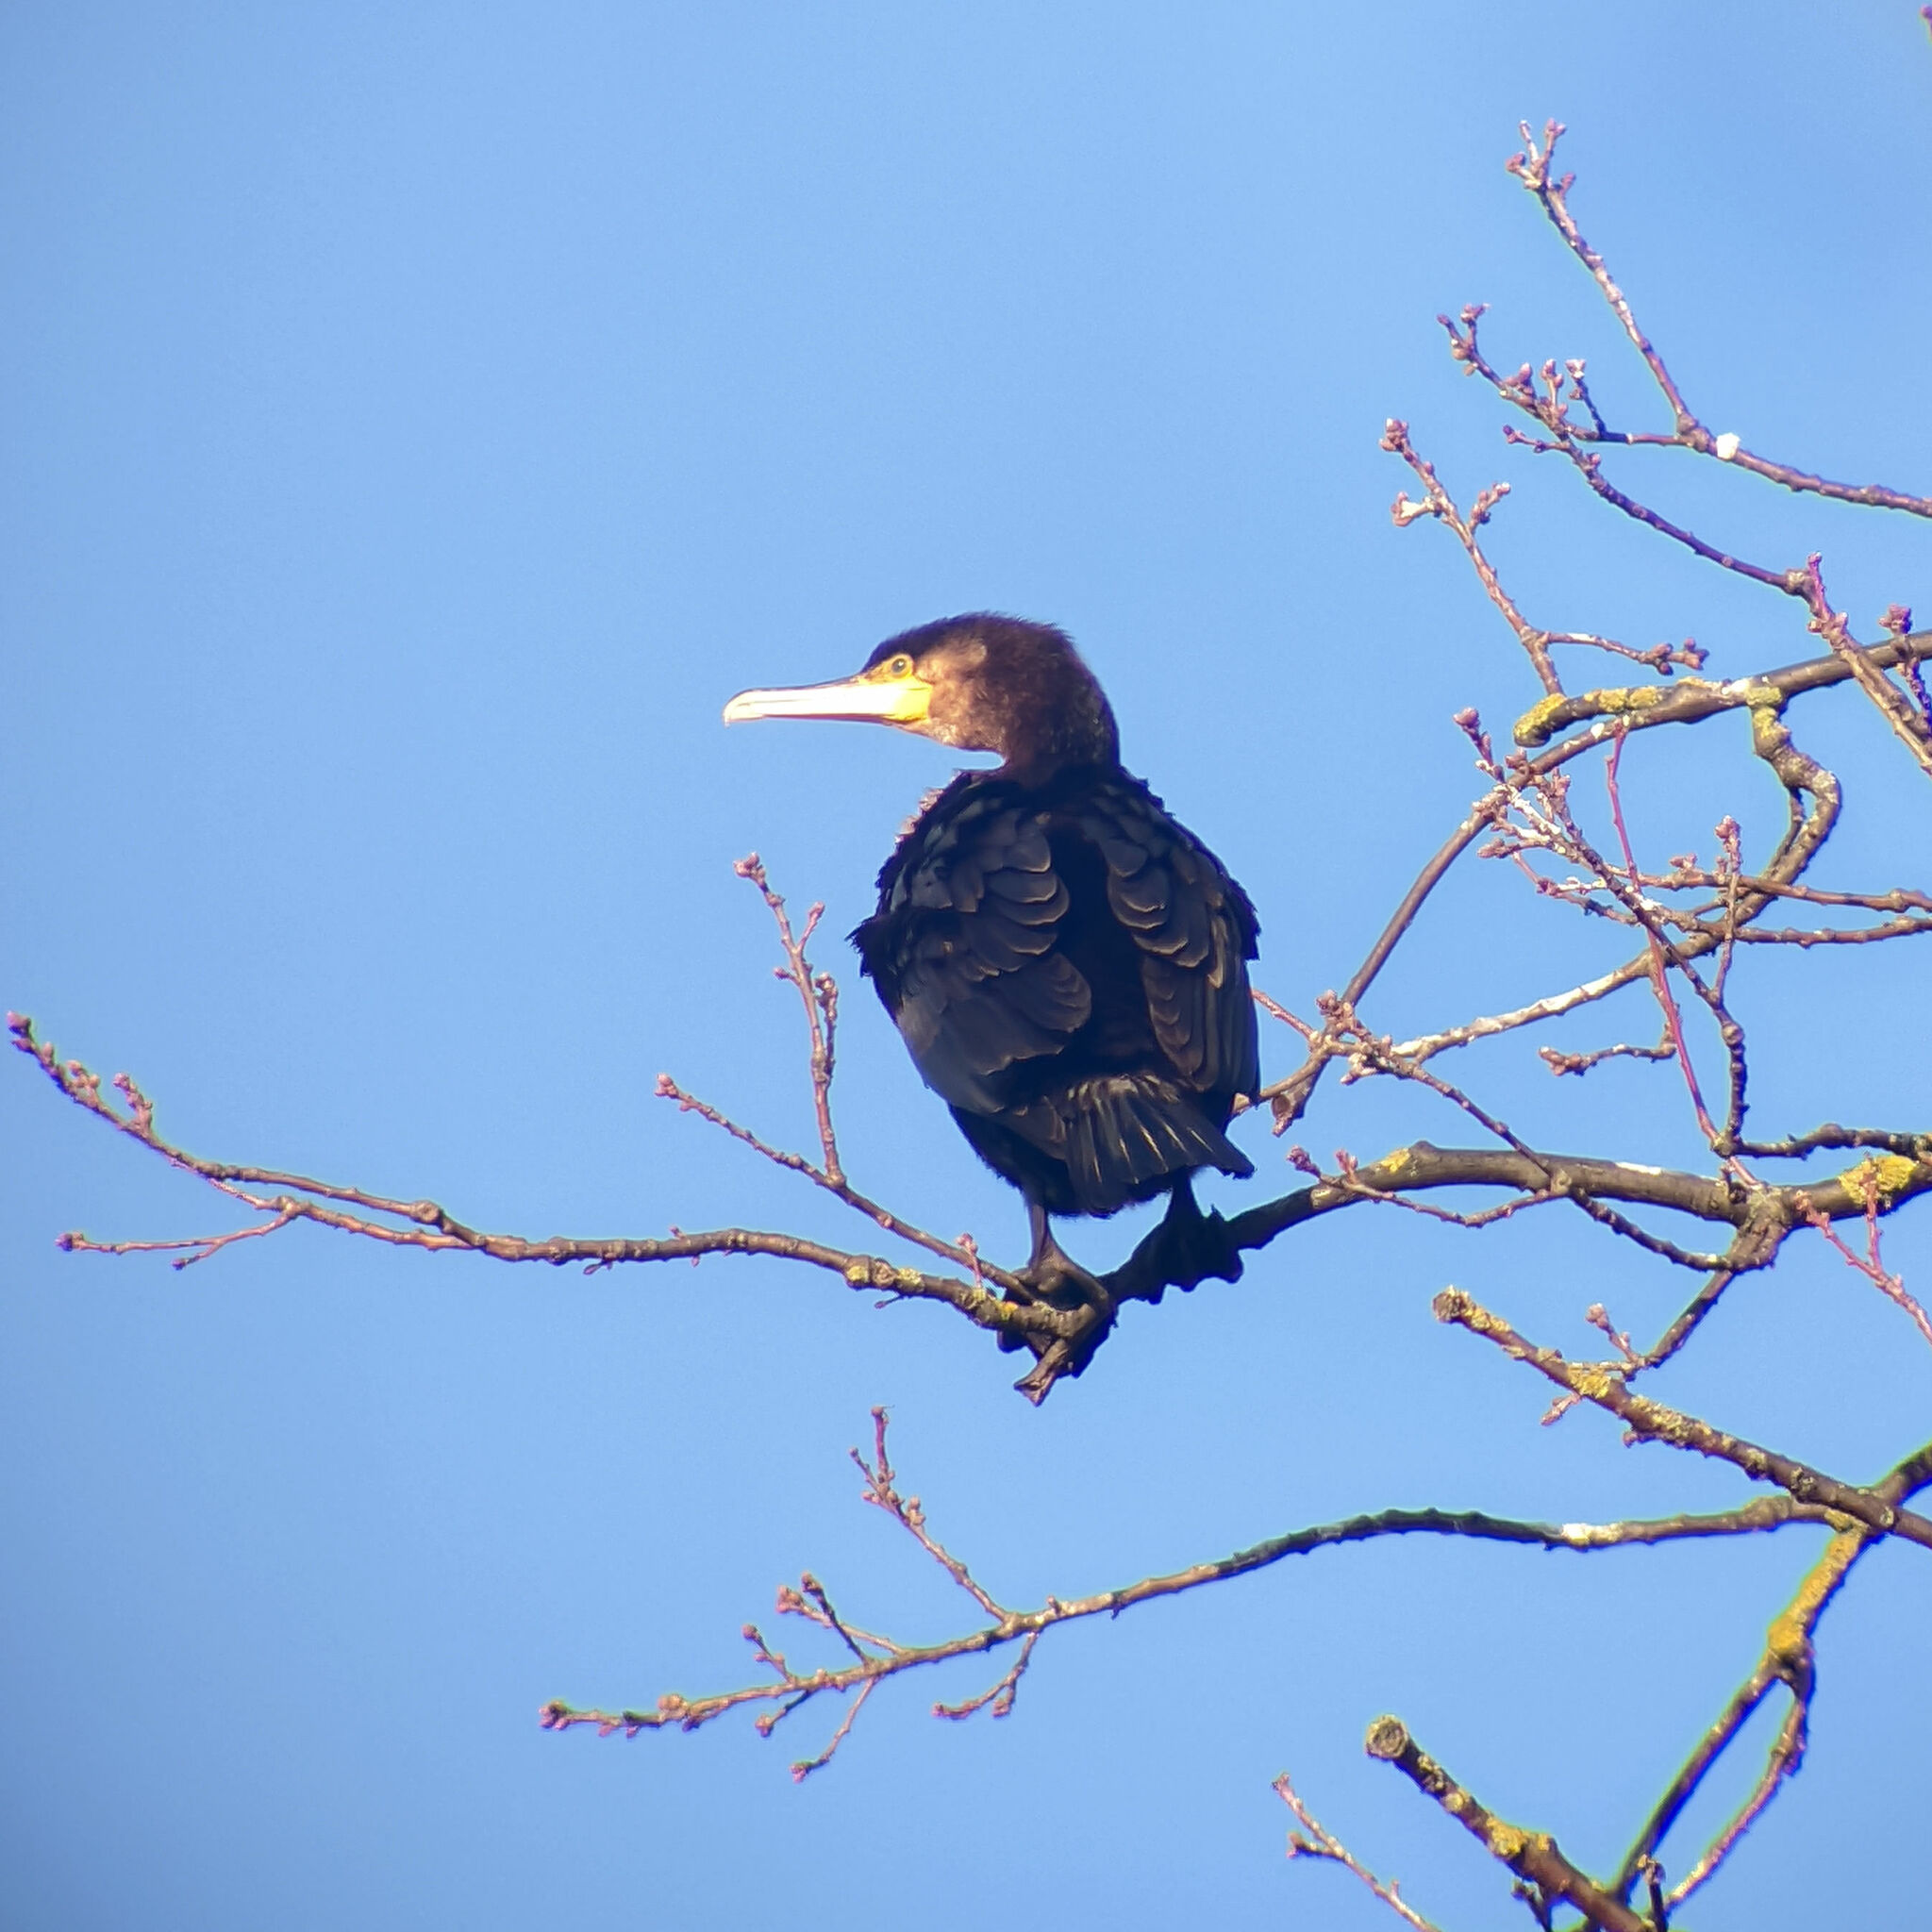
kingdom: Animalia
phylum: Chordata
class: Aves
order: Suliformes
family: Phalacrocoracidae
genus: Phalacrocorax
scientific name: Phalacrocorax carbo
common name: Great cormorant
